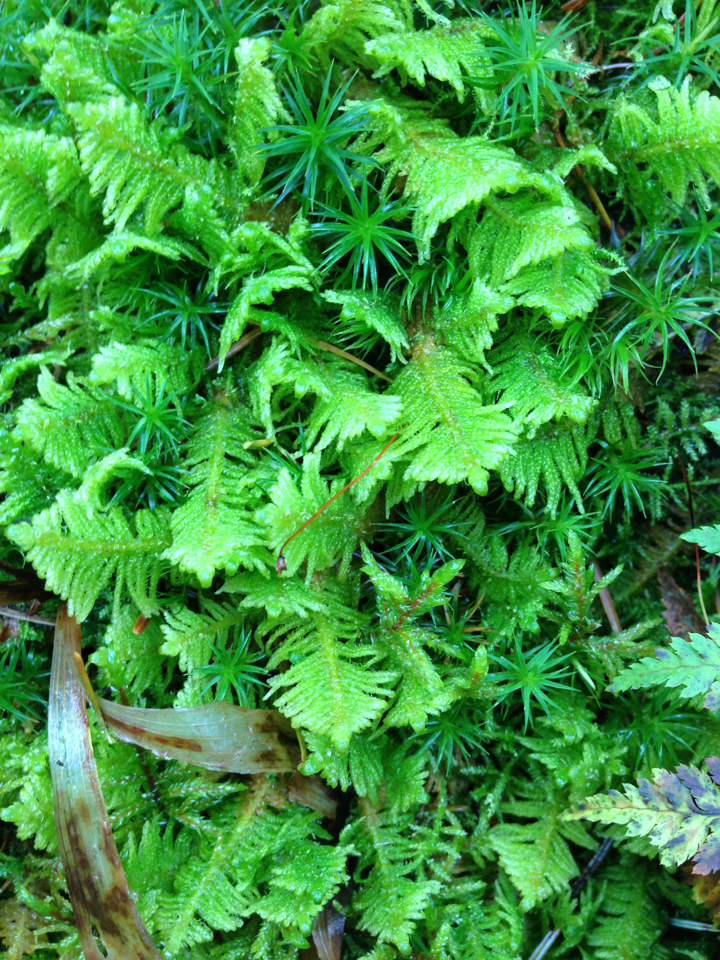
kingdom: Plantae
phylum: Bryophyta
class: Bryopsida
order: Hypnales
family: Pylaisiaceae
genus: Ptilium
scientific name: Ptilium crista-castrensis
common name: Knight's plume moss
